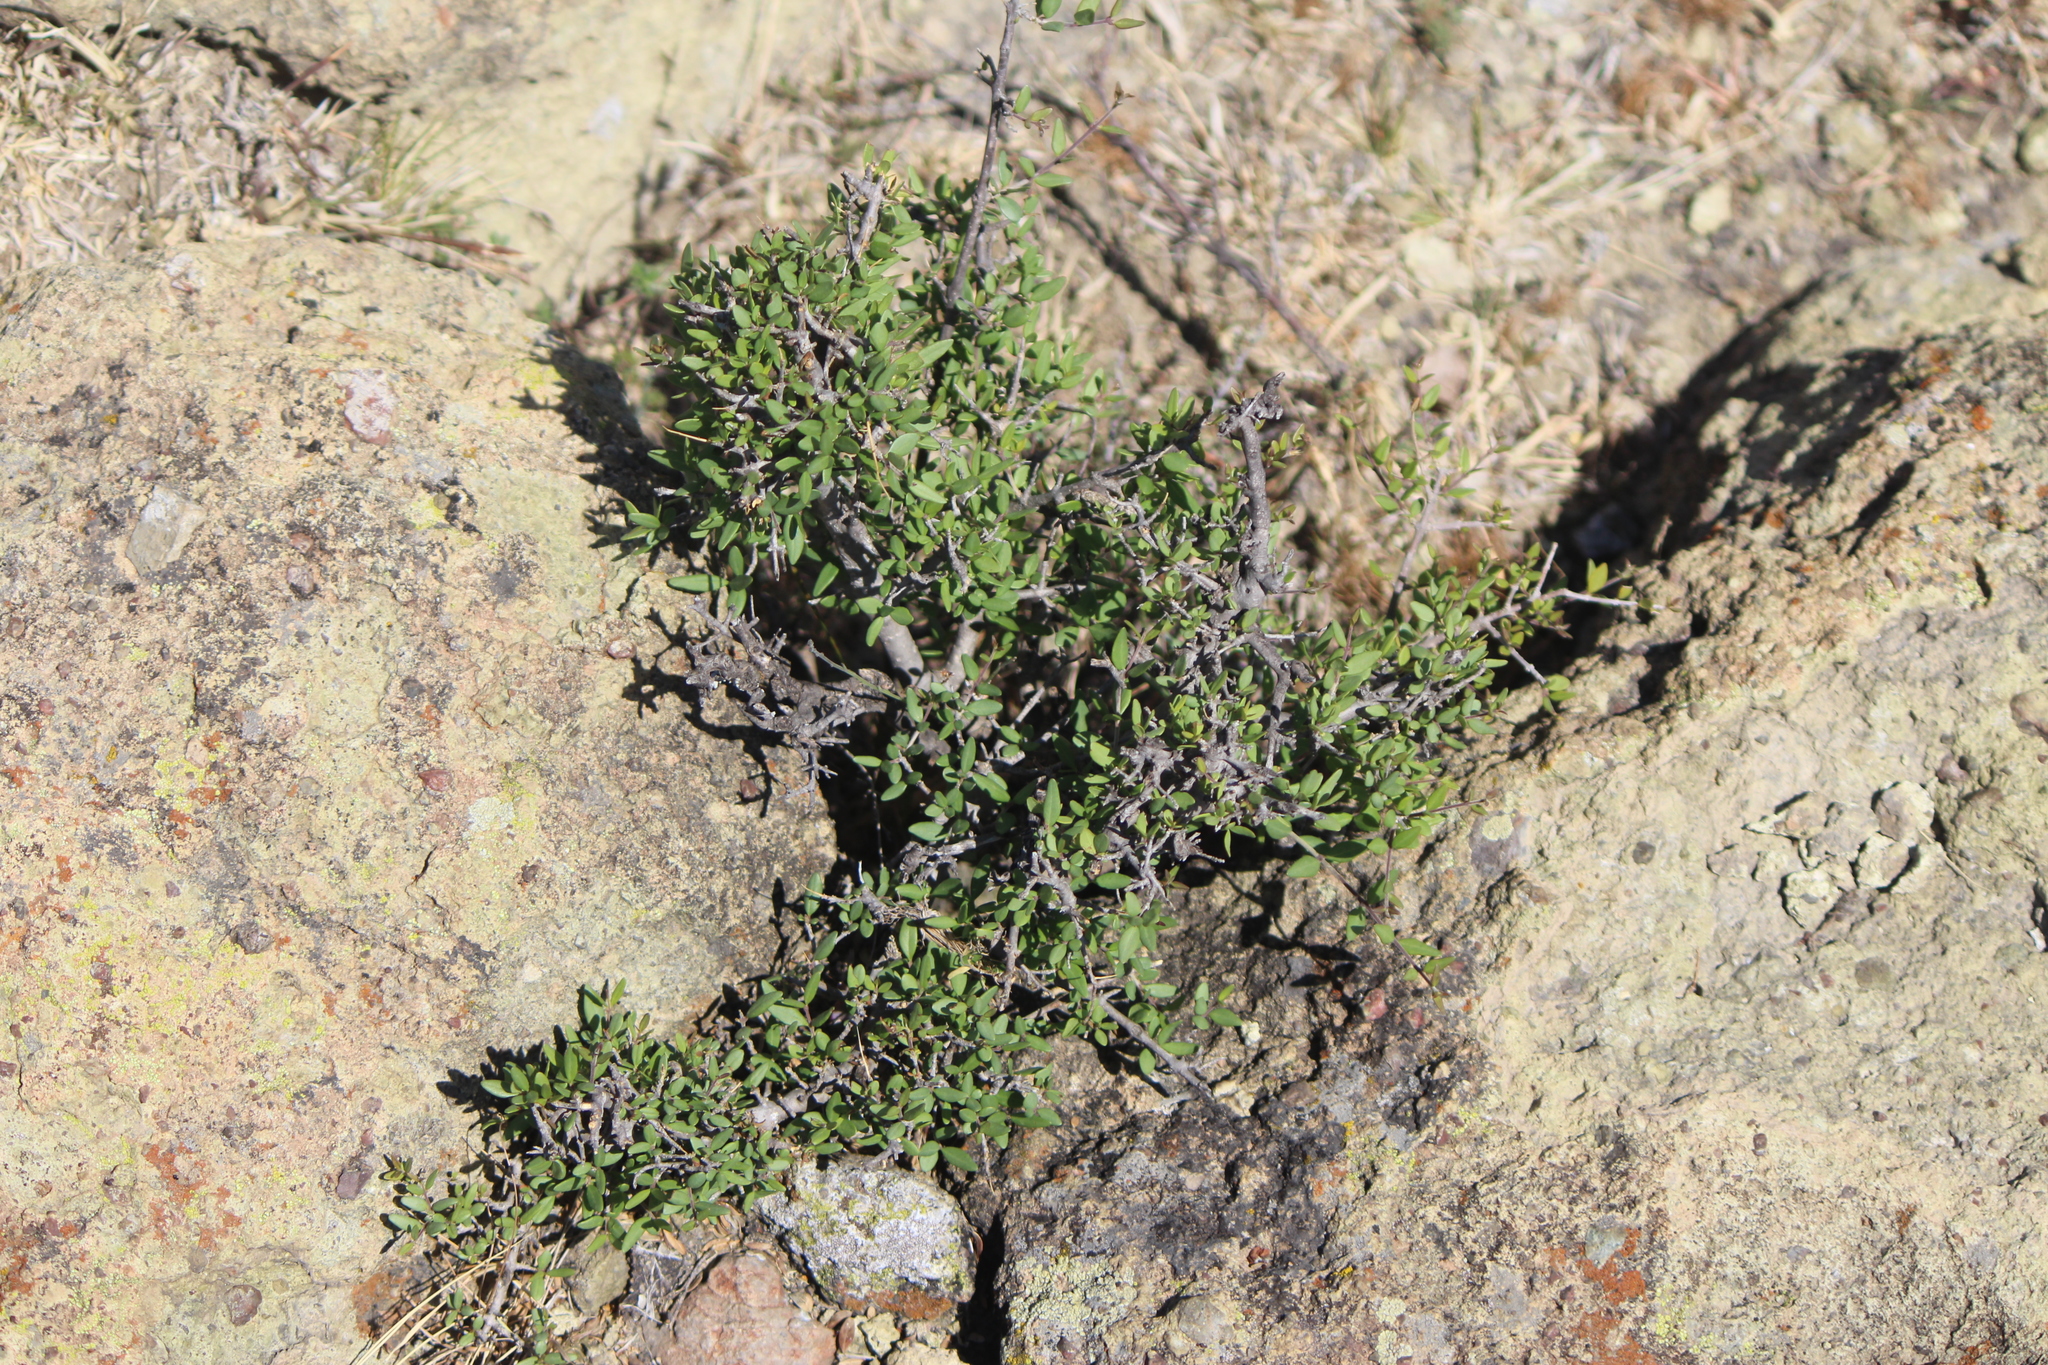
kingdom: Plantae
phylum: Tracheophyta
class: Magnoliopsida
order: Lamiales
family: Oleaceae
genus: Forestiera
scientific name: Forestiera phillyreoides
